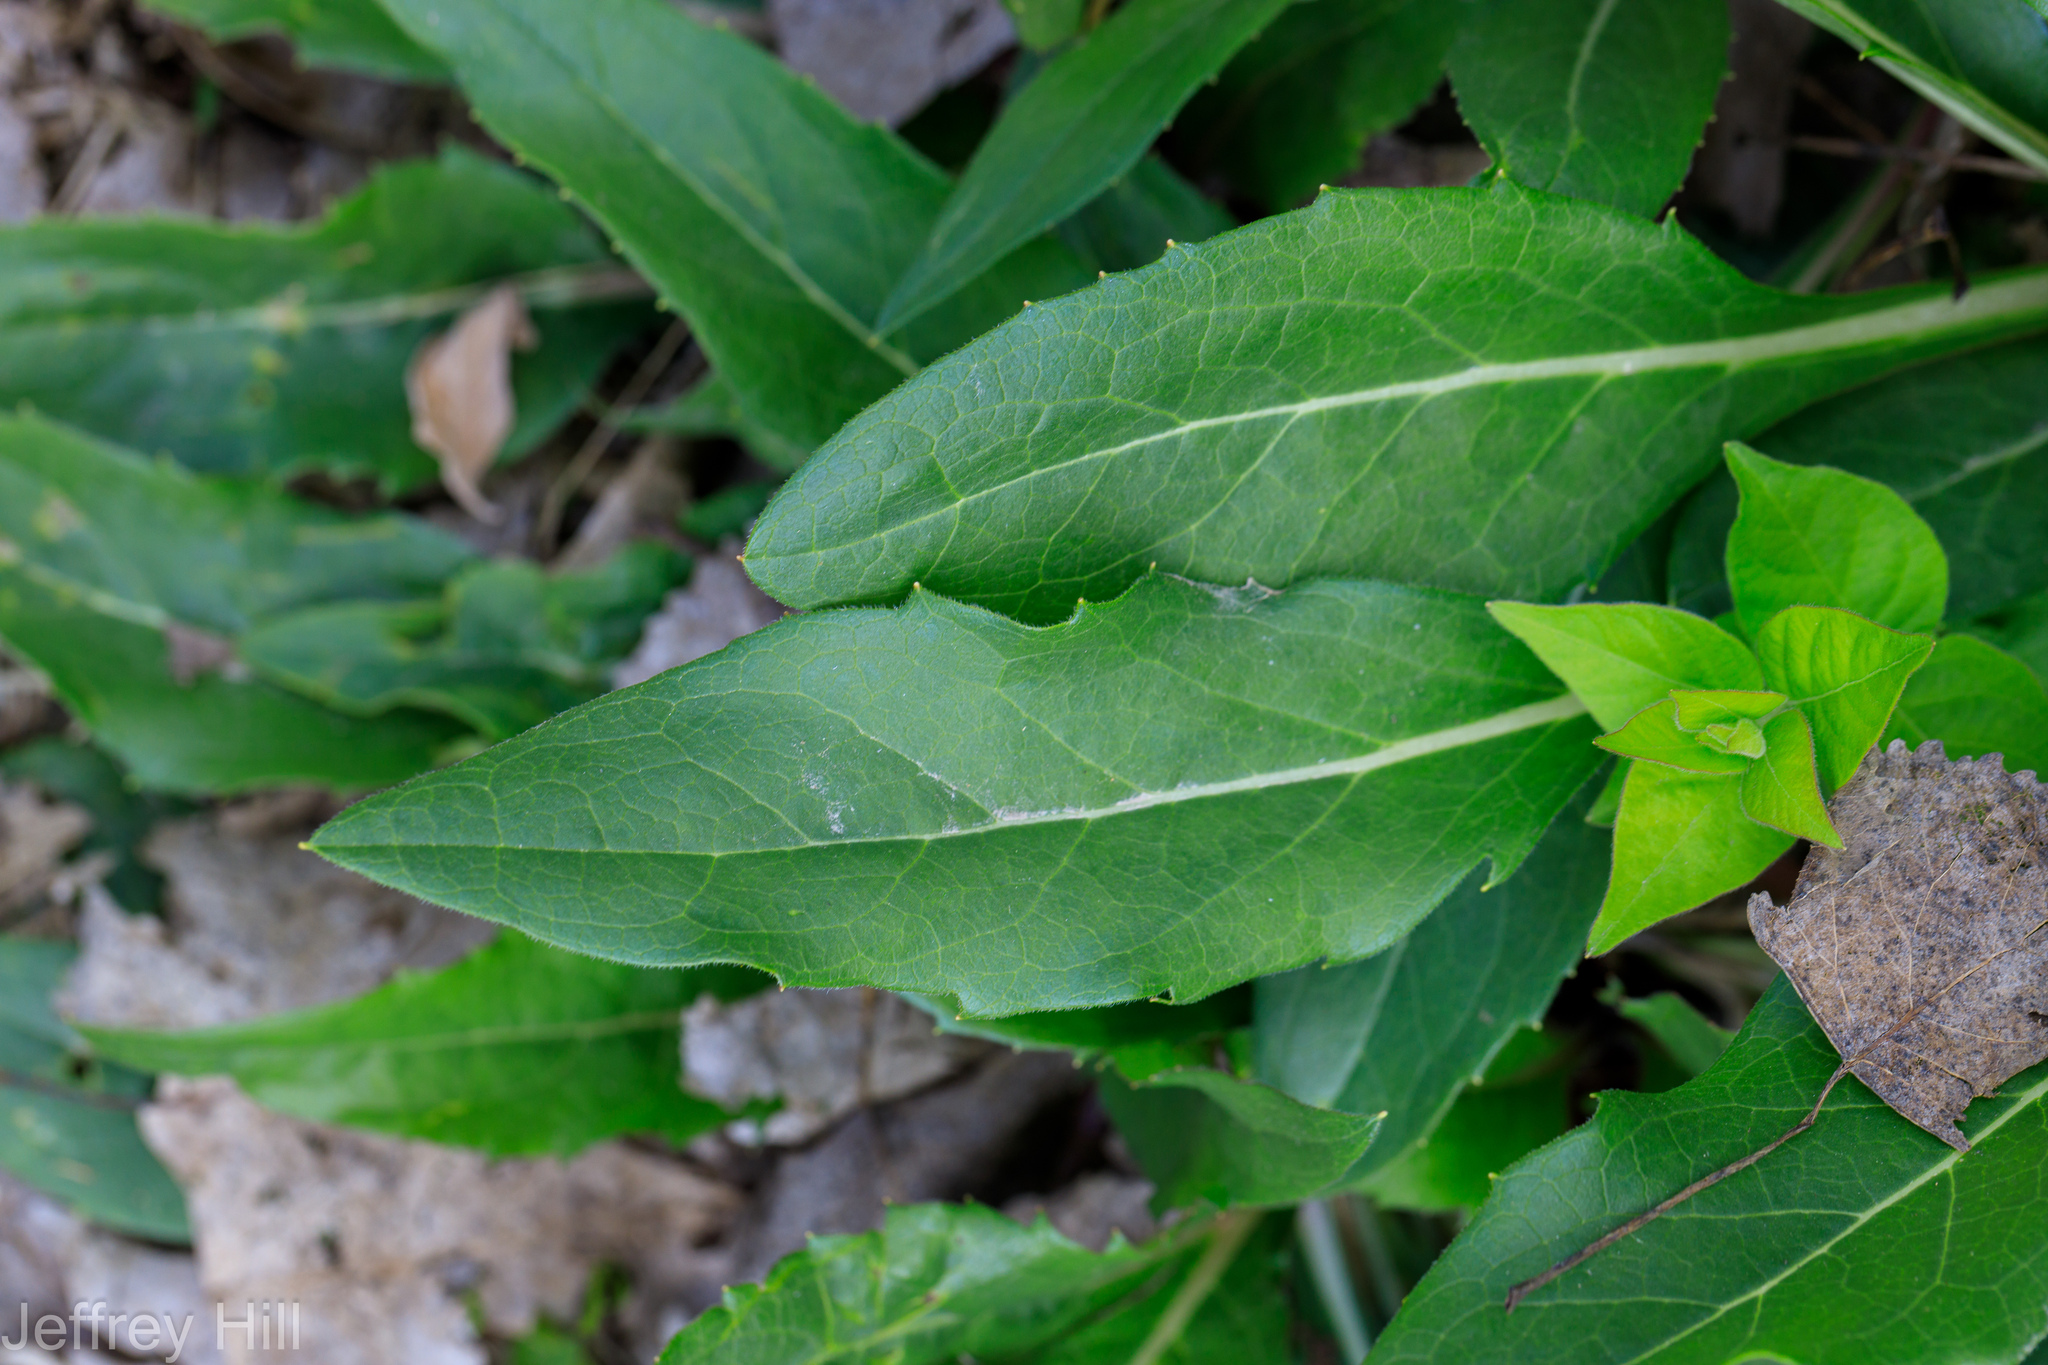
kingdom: Plantae
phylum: Tracheophyta
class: Magnoliopsida
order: Brassicales
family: Brassicaceae
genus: Hesperis
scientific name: Hesperis matronalis
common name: Dame's-violet
